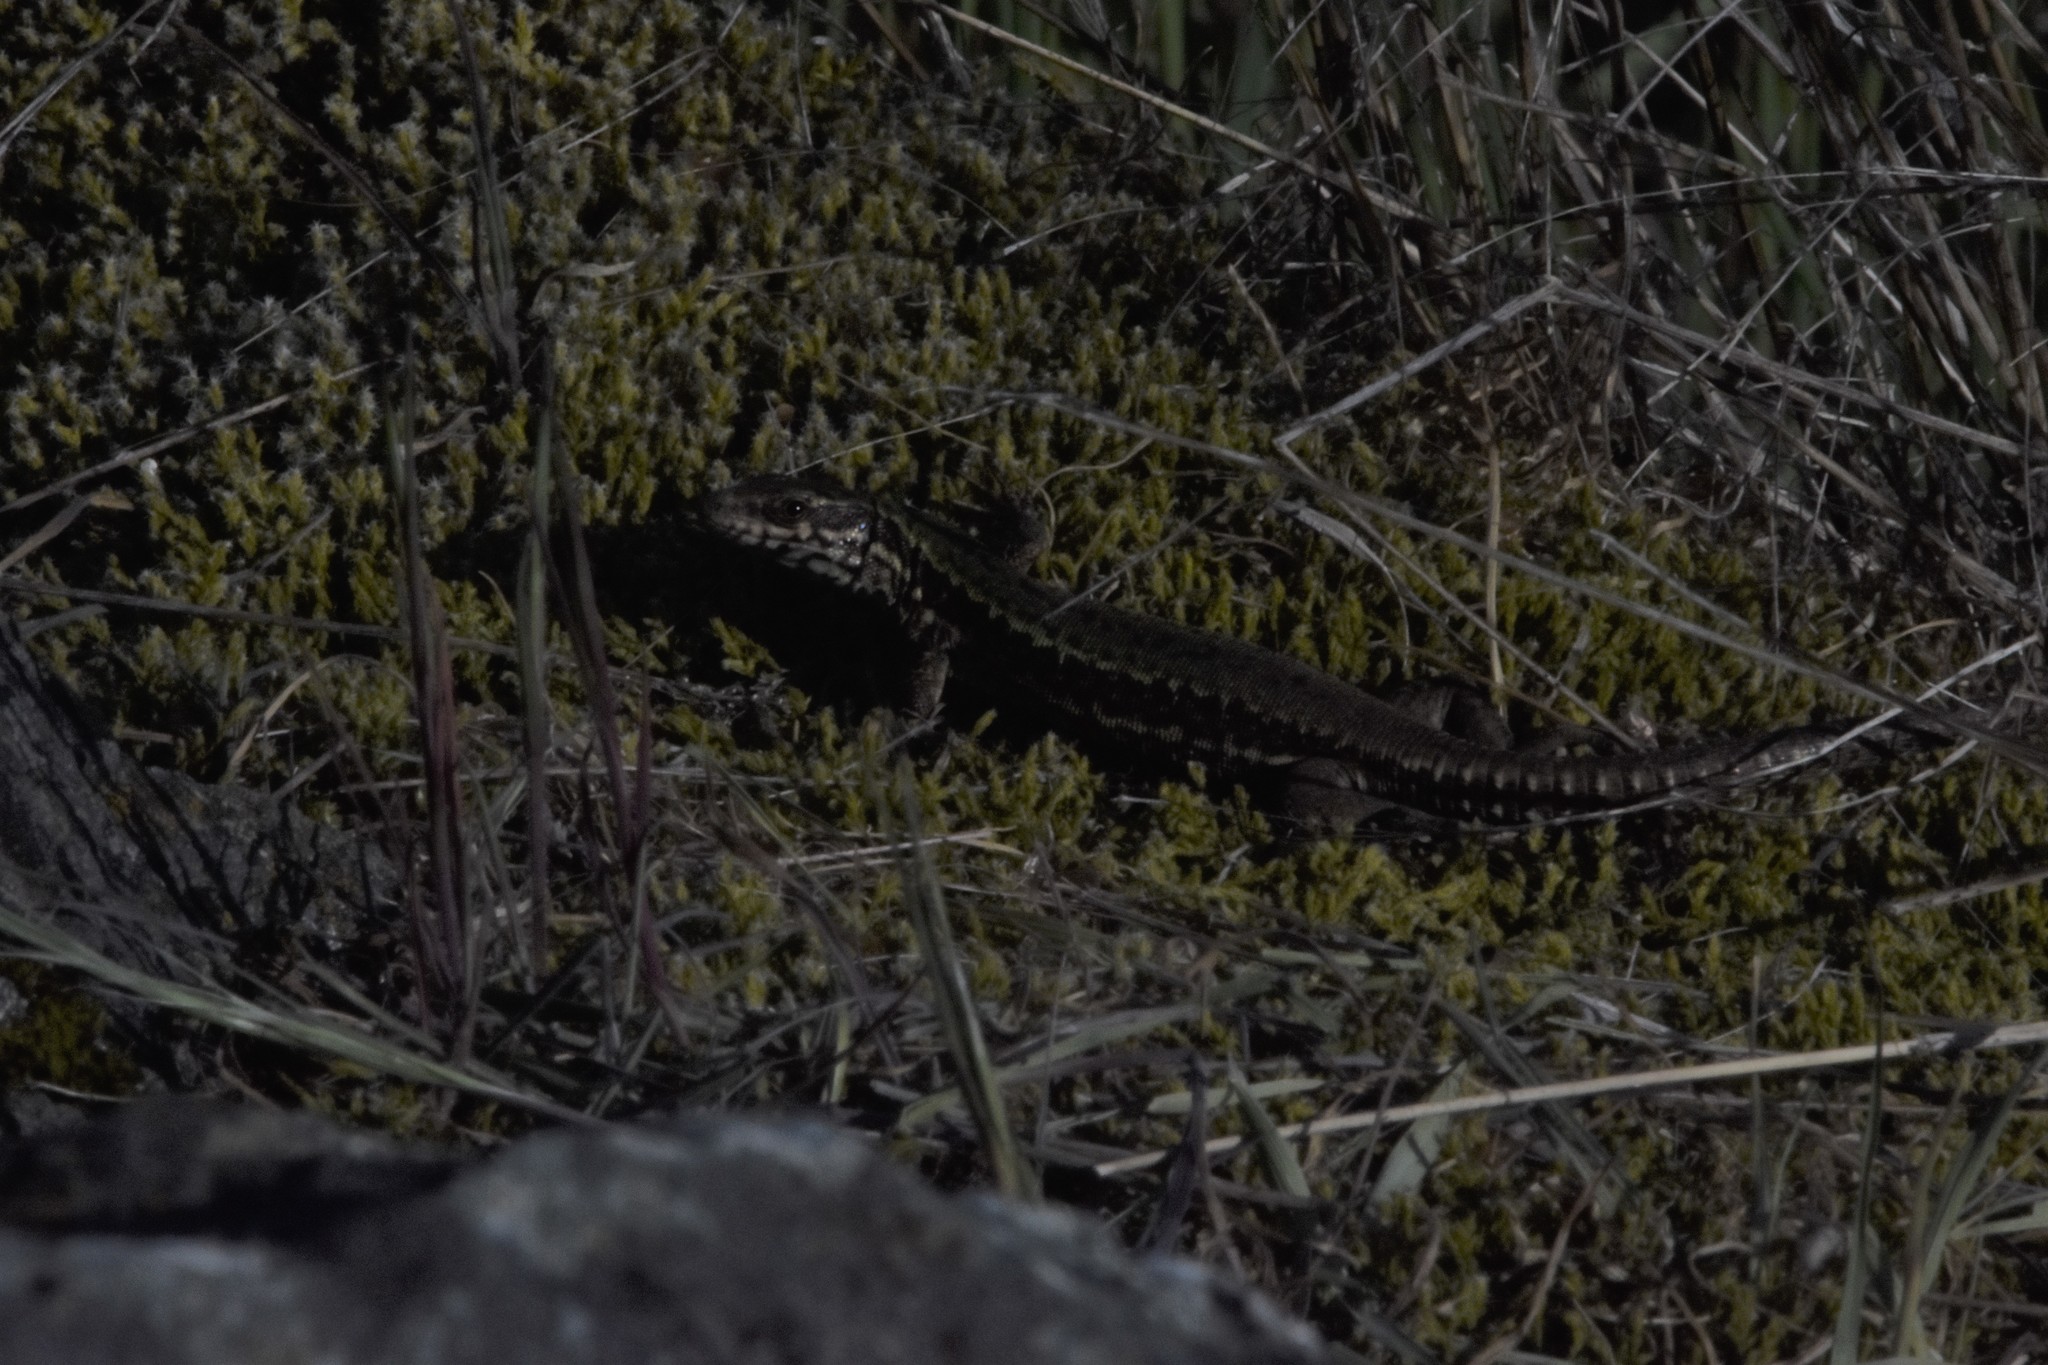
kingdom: Animalia
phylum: Chordata
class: Squamata
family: Lacertidae
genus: Podarcis
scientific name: Podarcis muralis
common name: Common wall lizard
